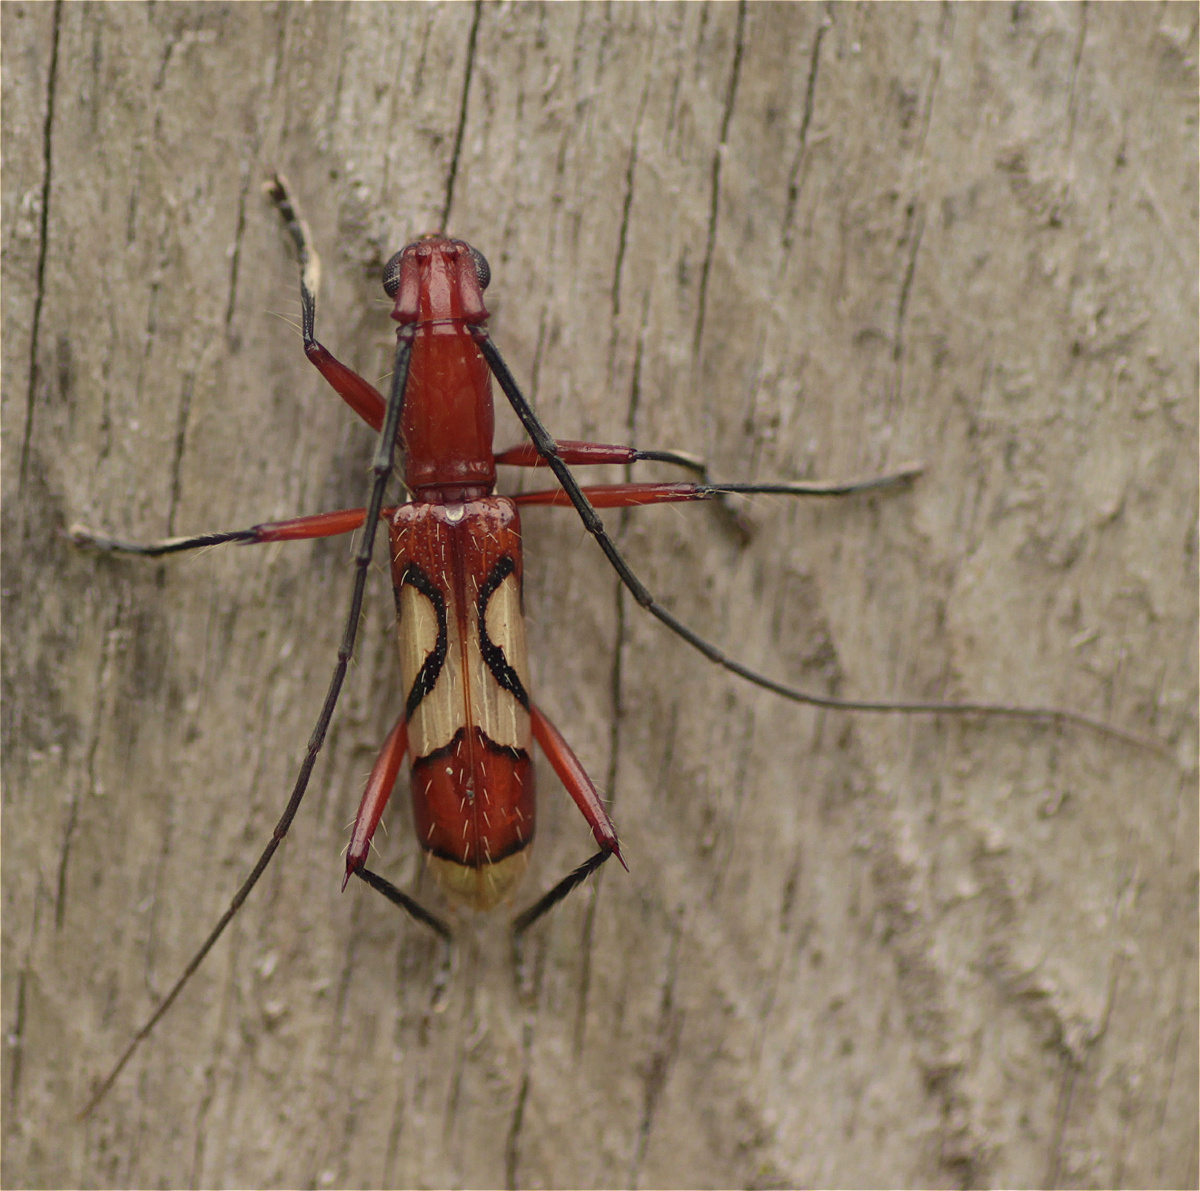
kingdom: Animalia
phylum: Arthropoda
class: Insecta
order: Coleoptera
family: Cerambycidae
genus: Hexoplon
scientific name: Hexoplon venus
